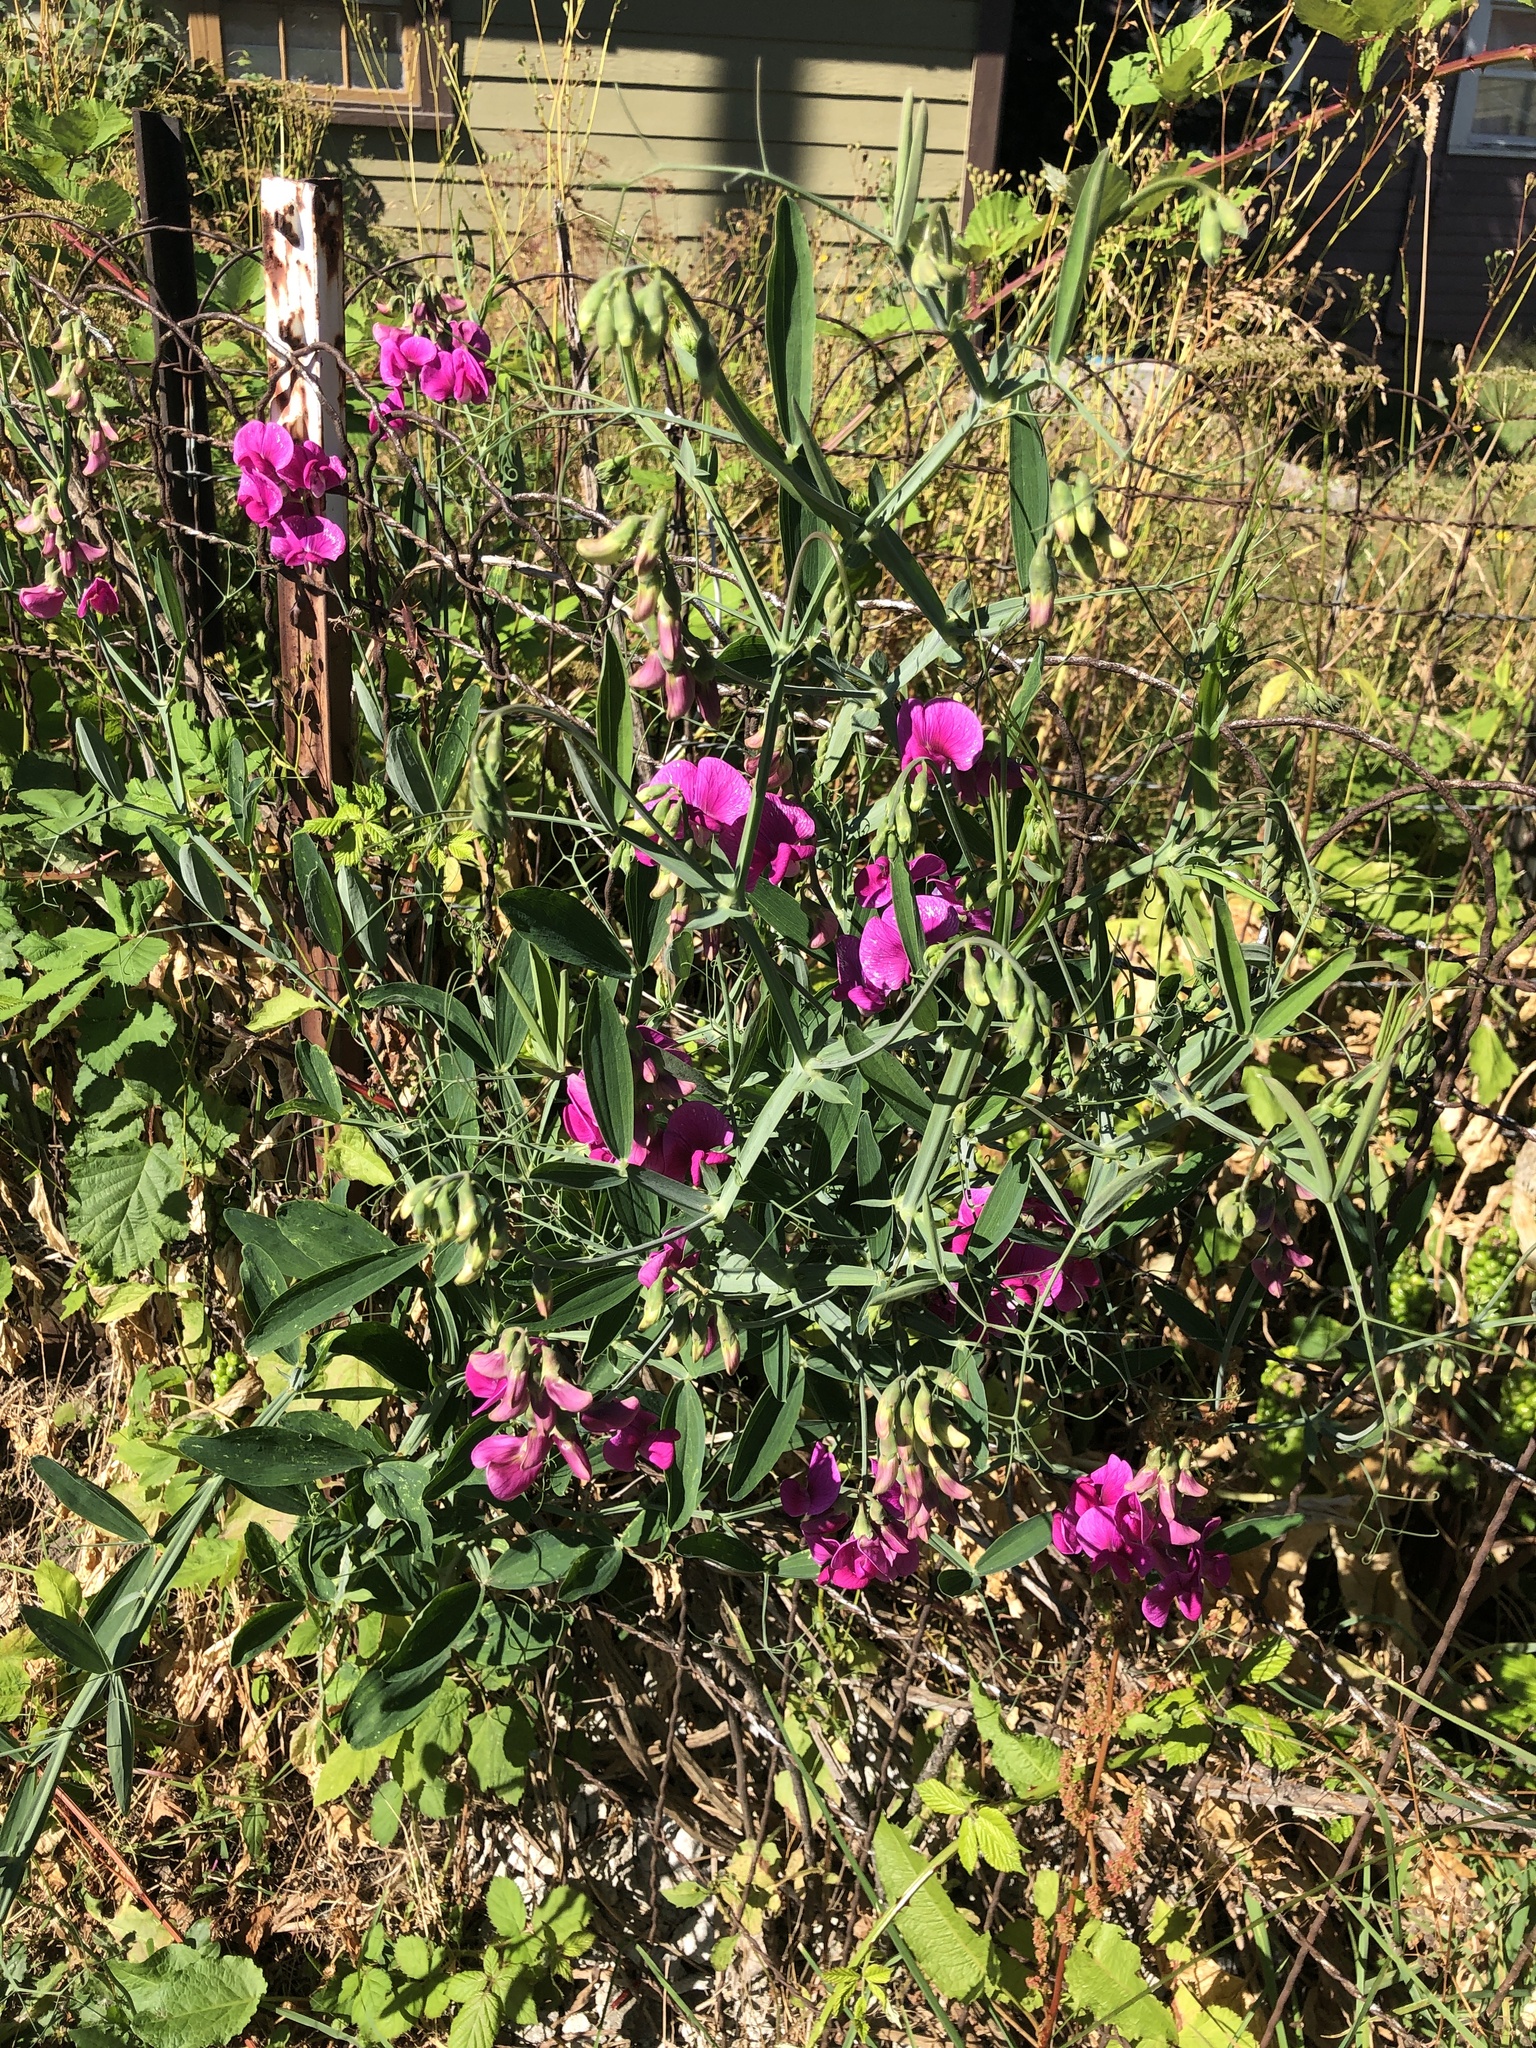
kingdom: Plantae
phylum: Tracheophyta
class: Magnoliopsida
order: Fabales
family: Fabaceae
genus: Lathyrus
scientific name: Lathyrus latifolius
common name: Perennial pea
